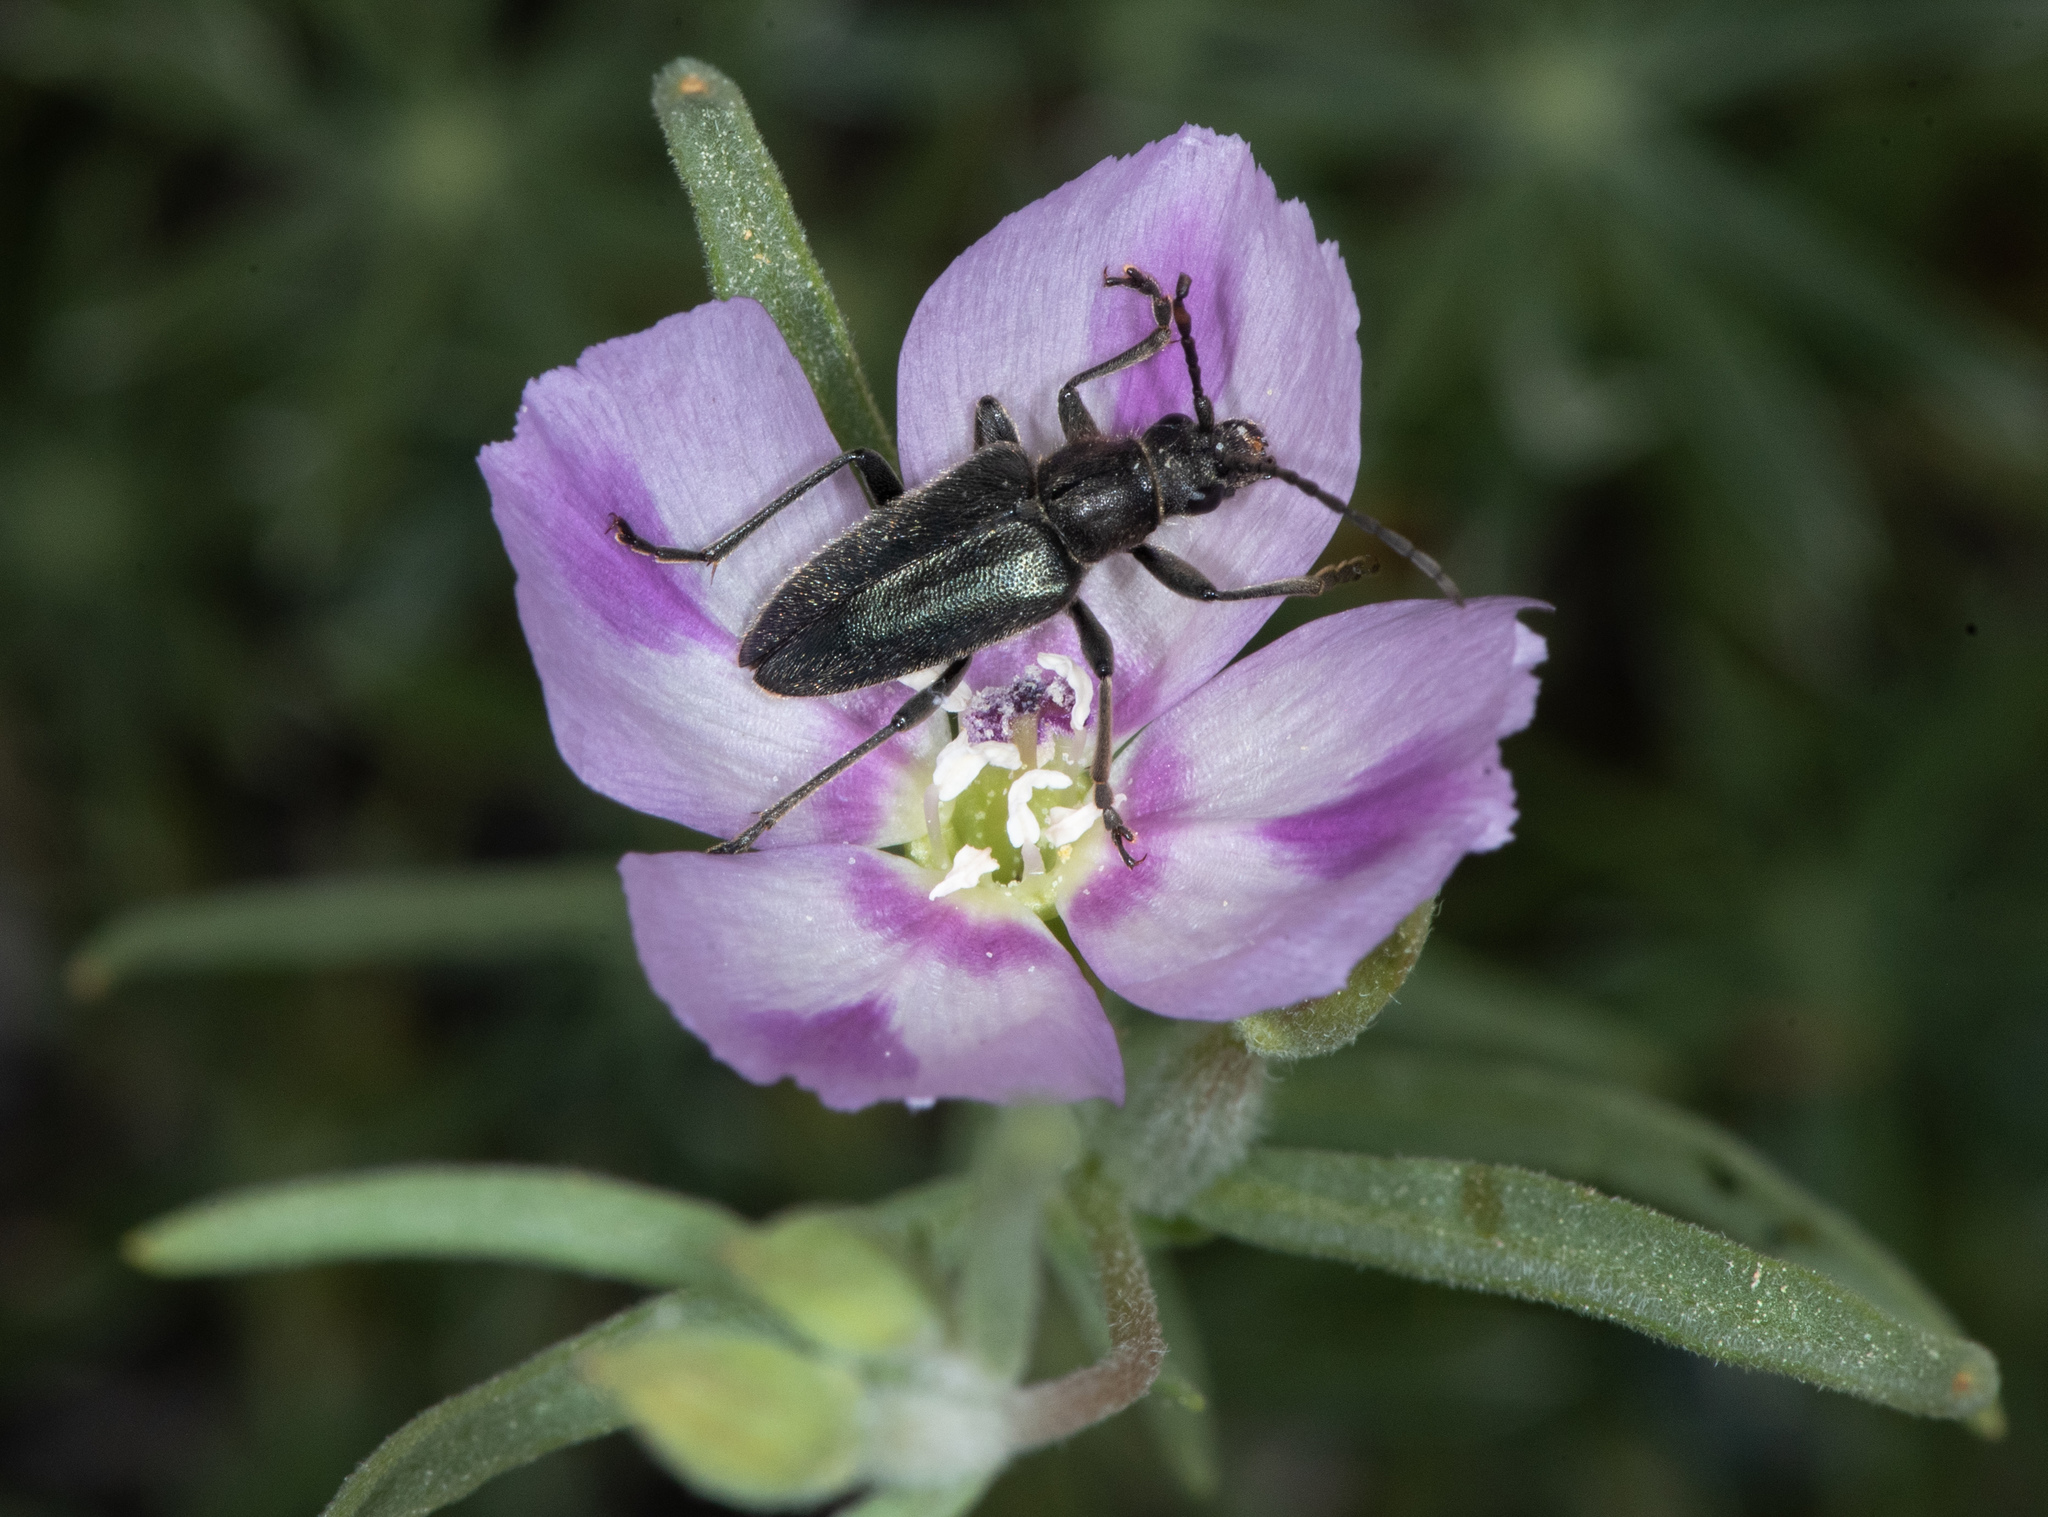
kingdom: Plantae
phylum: Tracheophyta
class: Magnoliopsida
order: Myrtales
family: Onagraceae
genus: Clarkia
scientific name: Clarkia purpurea
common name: Purple clarkia
